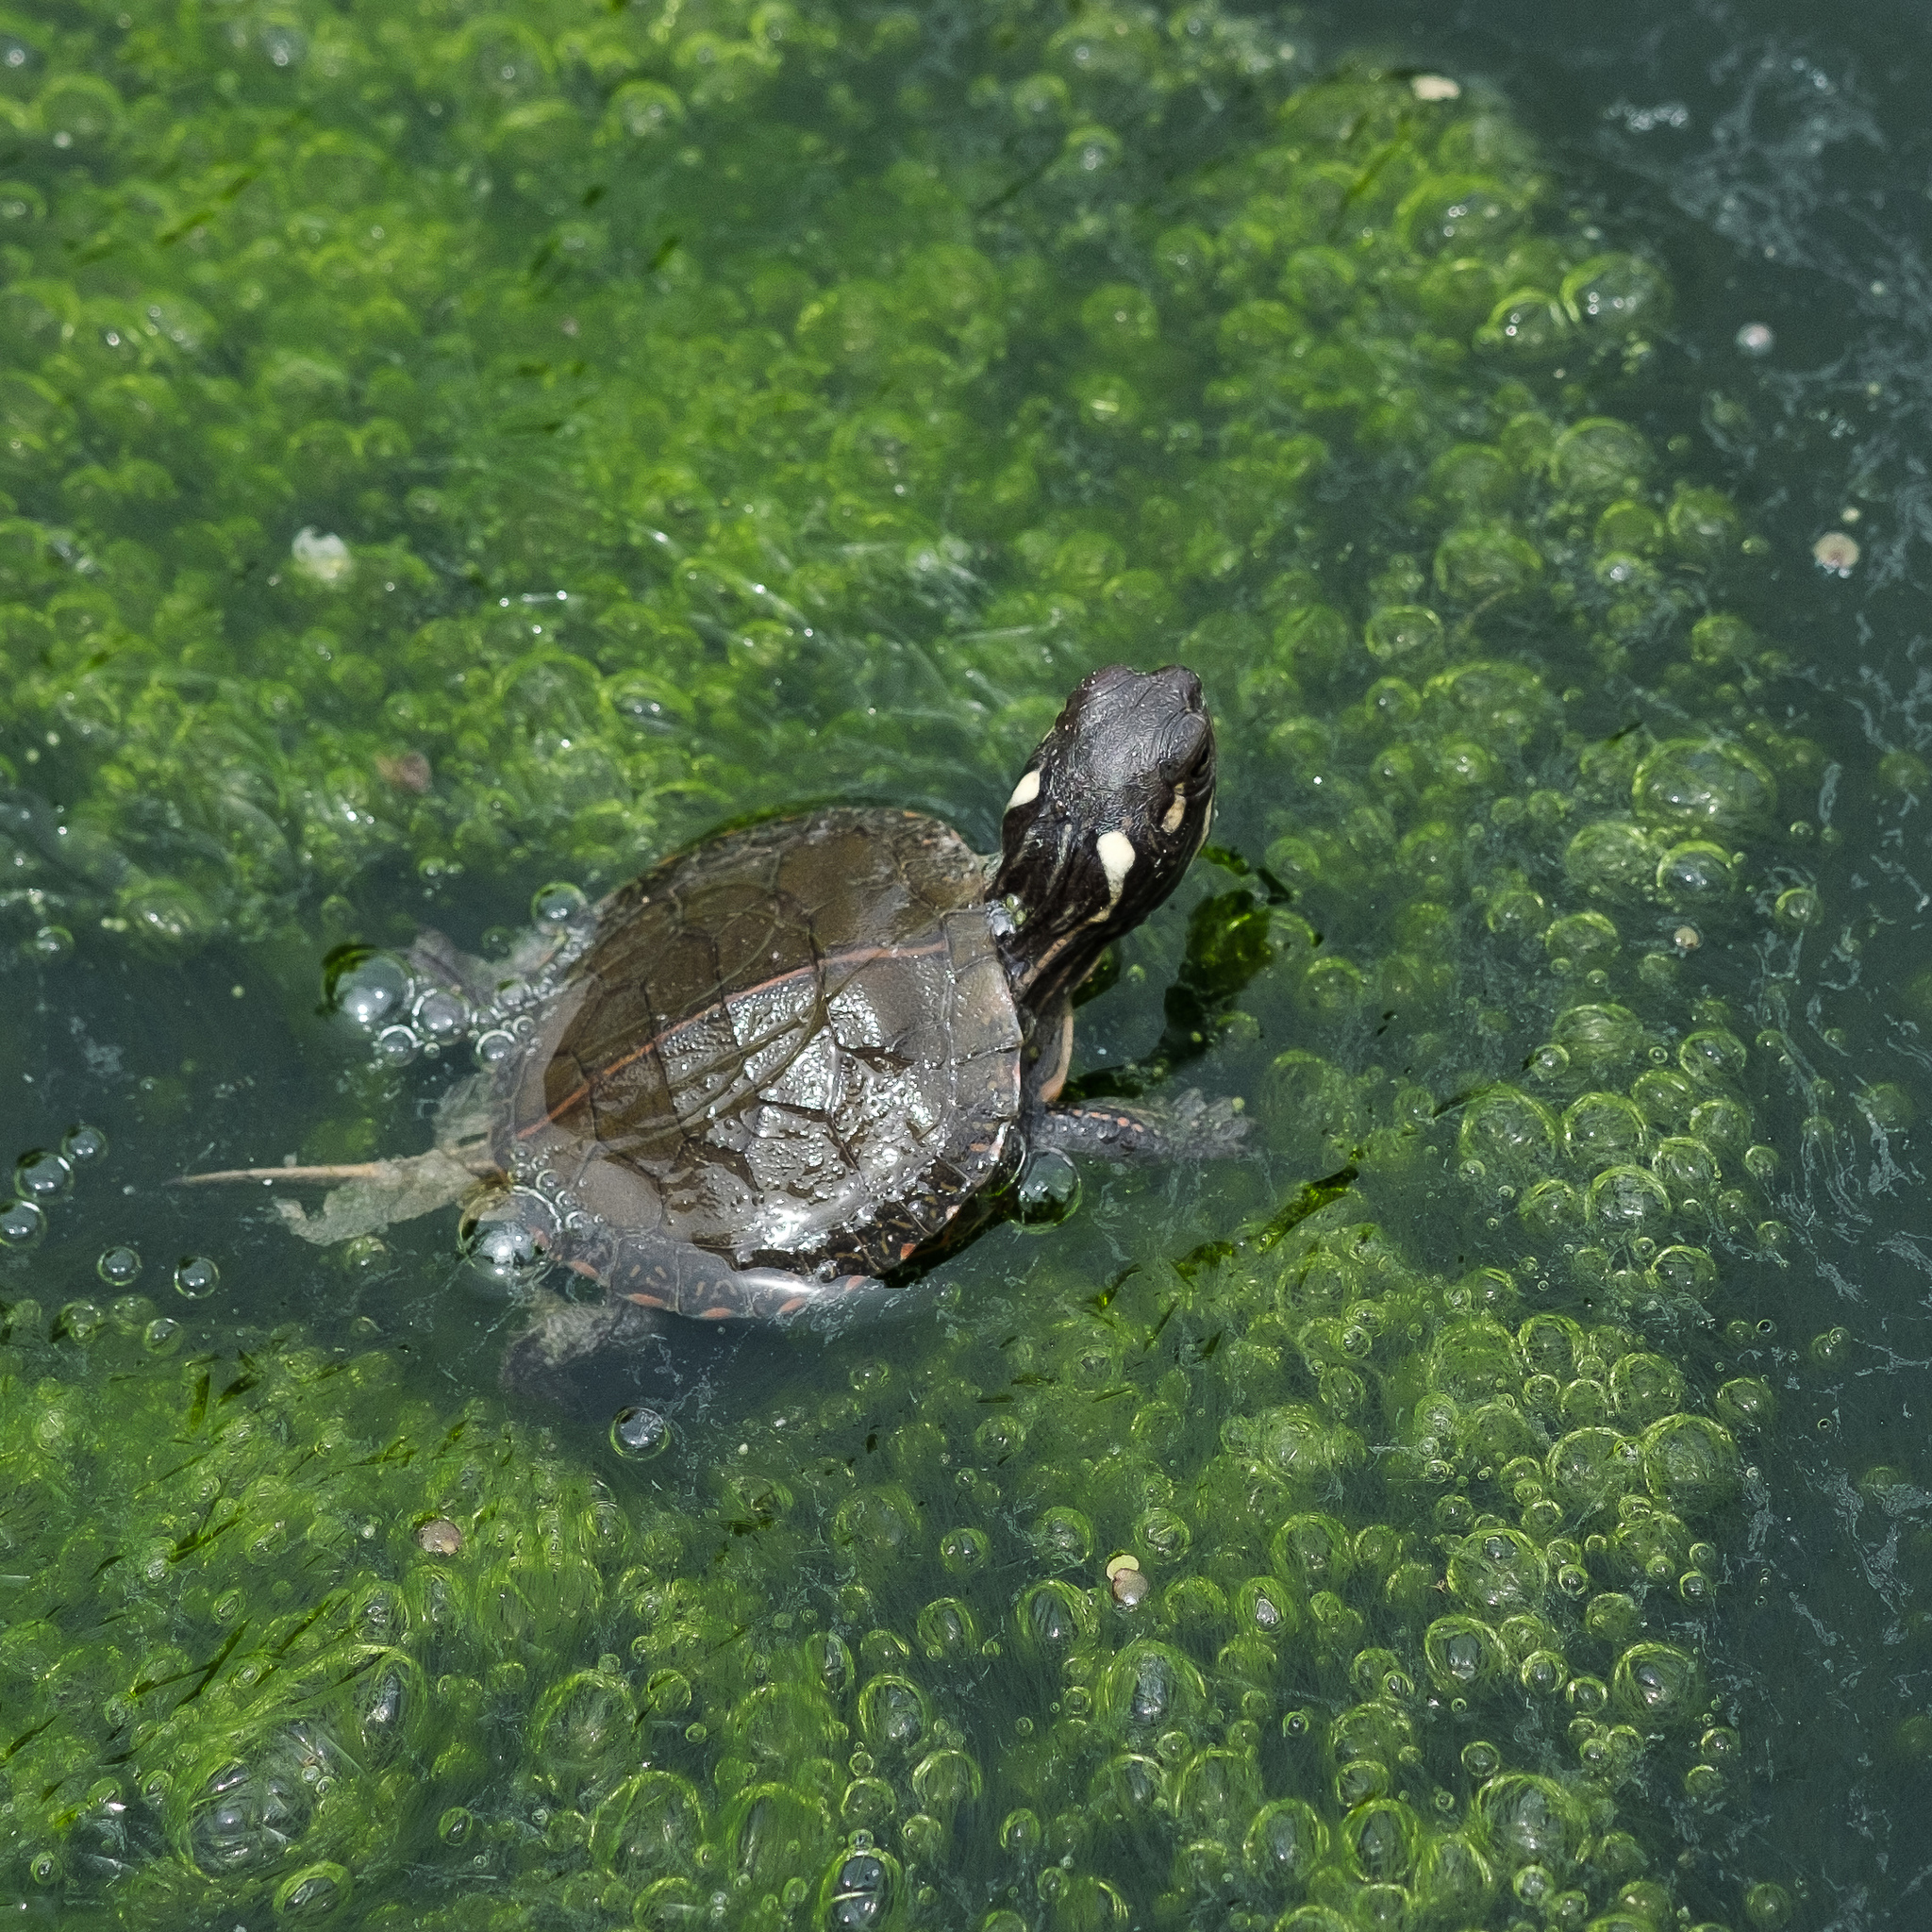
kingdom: Animalia
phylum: Chordata
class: Testudines
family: Emydidae
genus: Chrysemys
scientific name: Chrysemys picta
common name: Painted turtle
